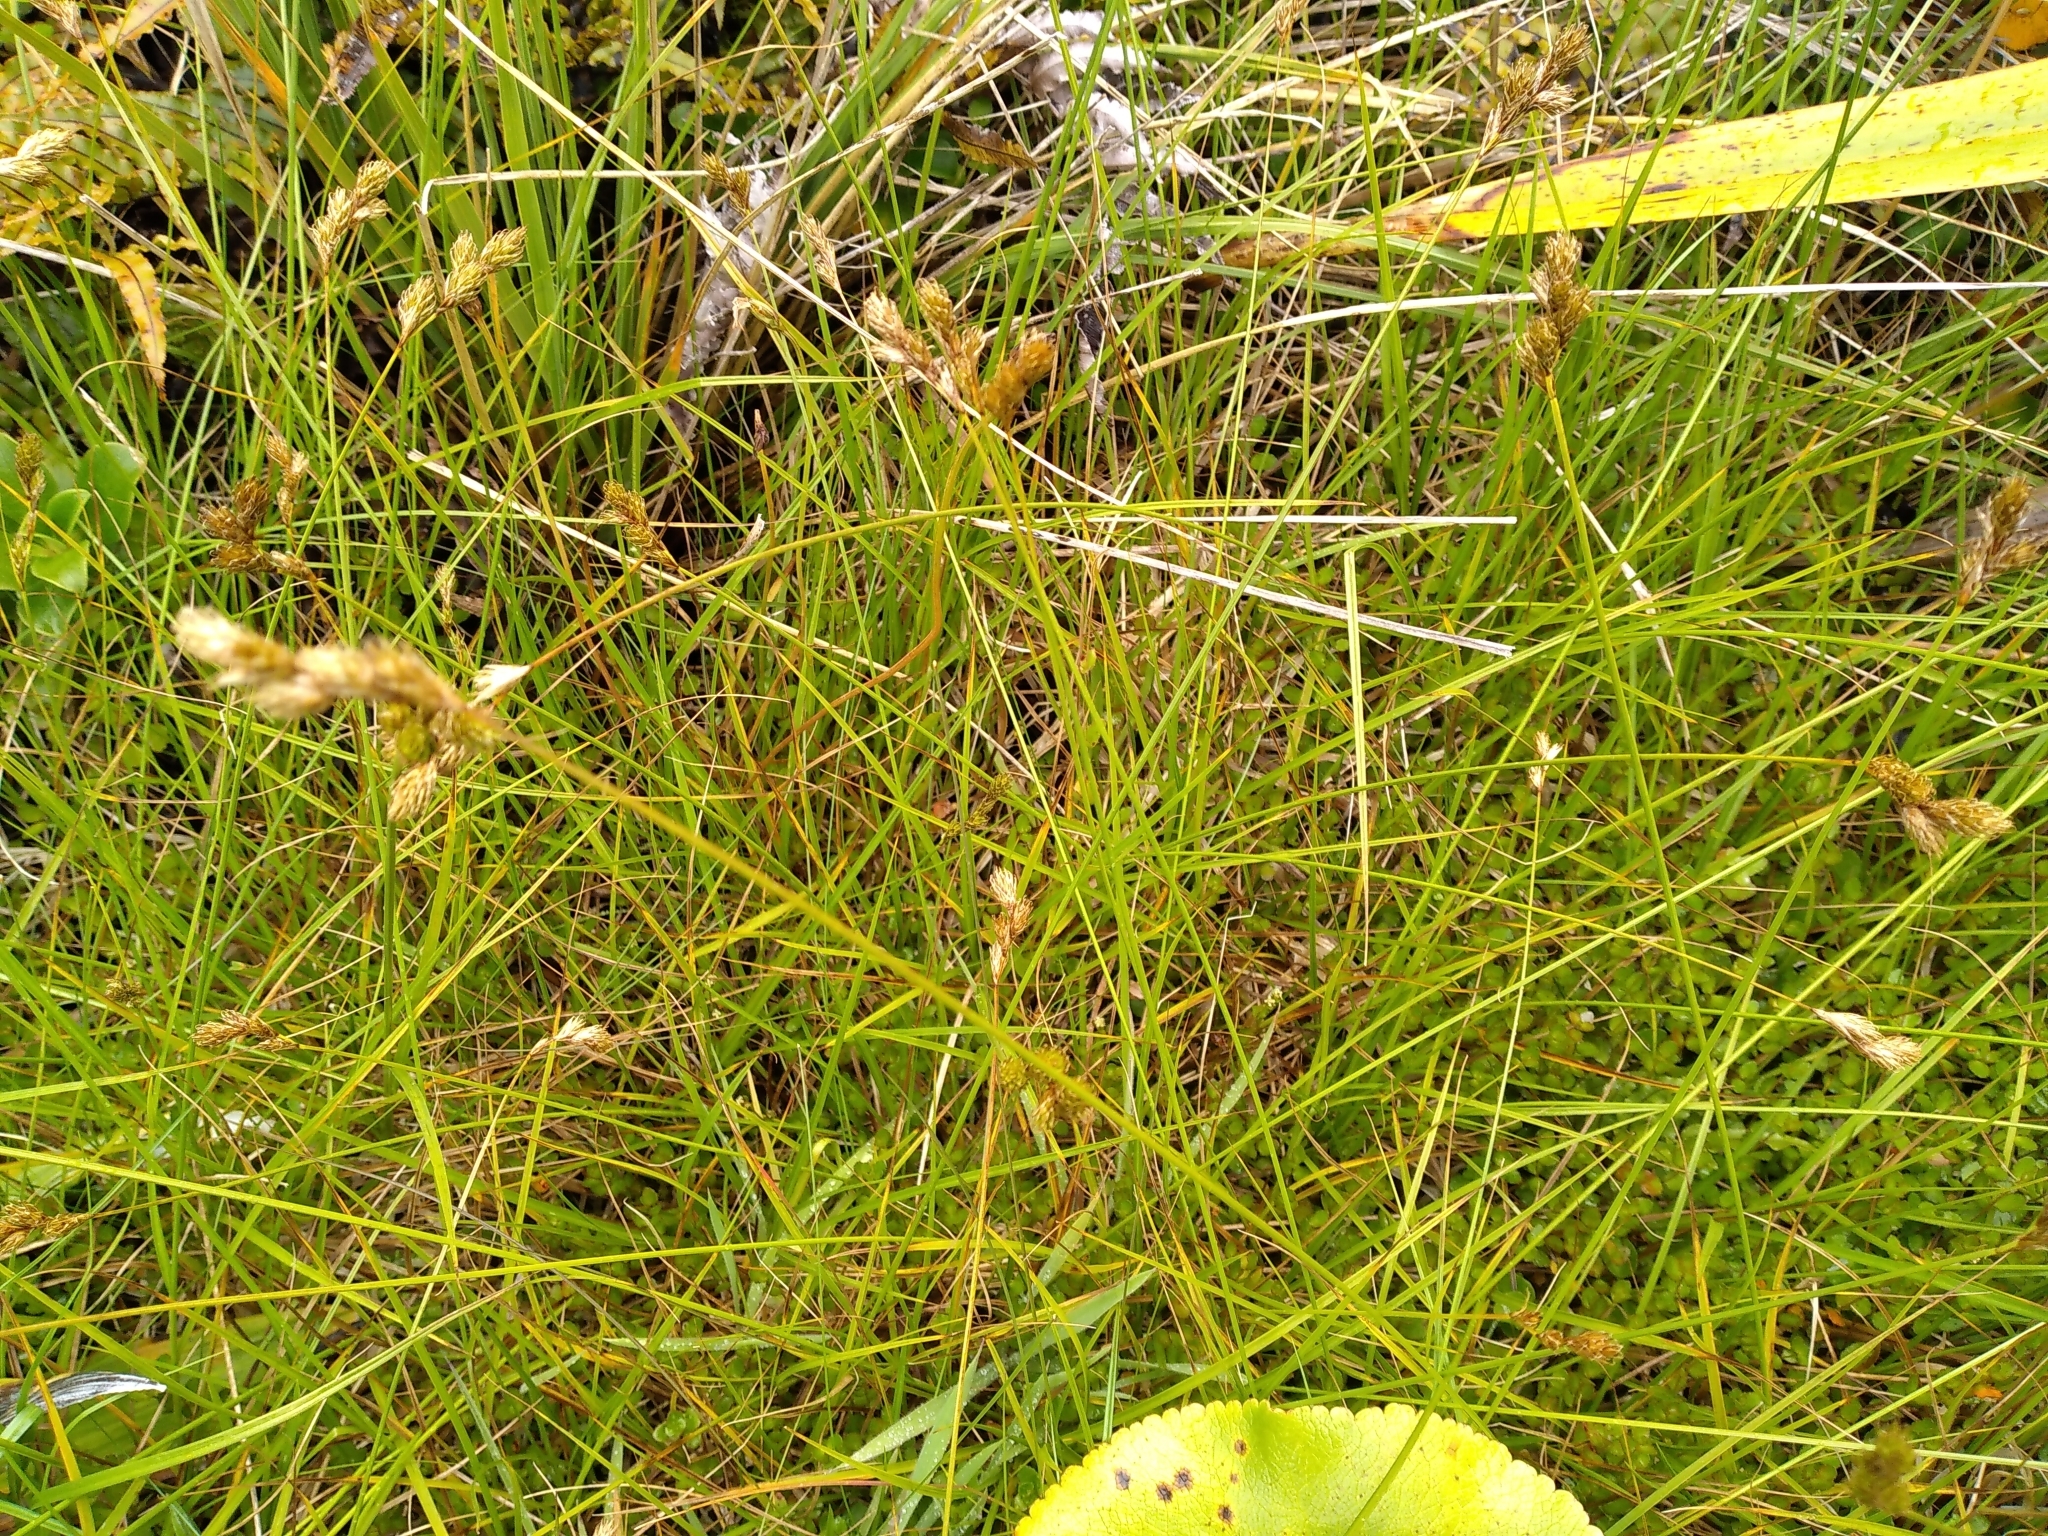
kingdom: Plantae
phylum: Tracheophyta
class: Liliopsida
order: Poales
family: Cyperaceae
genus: Carex
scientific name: Carex leporina
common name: Oval sedge
